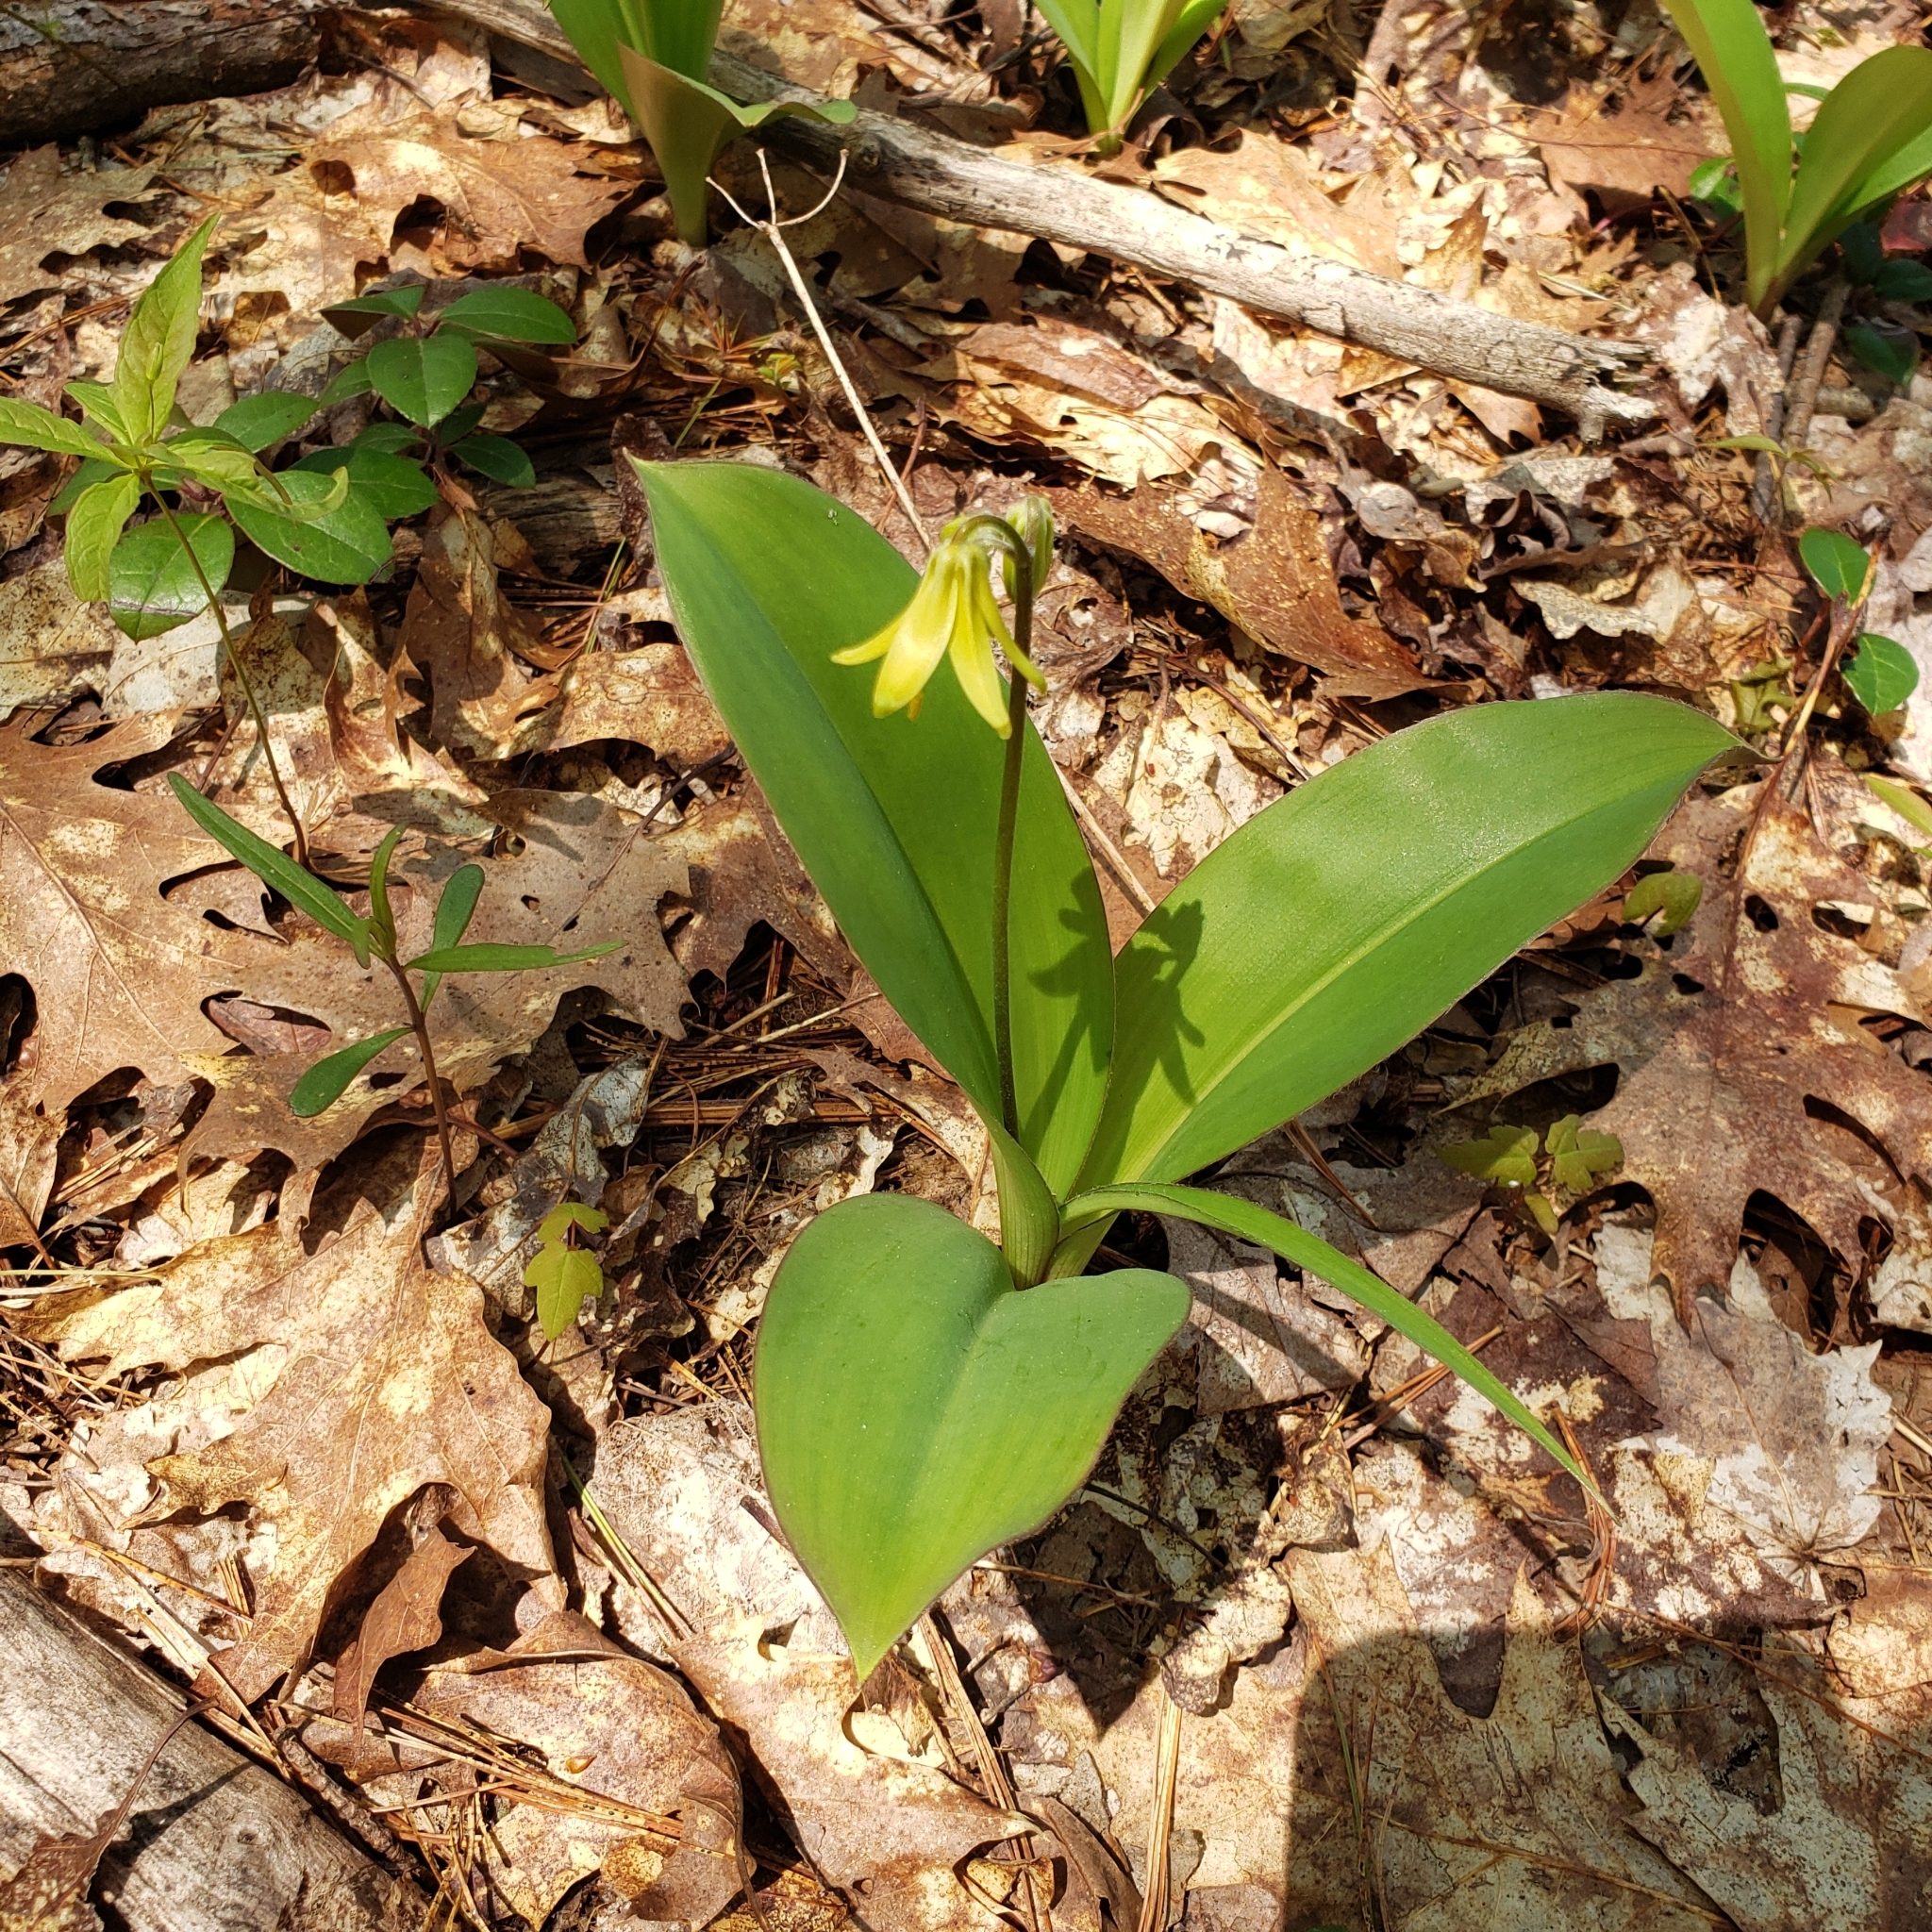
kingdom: Plantae
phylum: Tracheophyta
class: Liliopsida
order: Liliales
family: Liliaceae
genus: Clintonia
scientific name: Clintonia borealis
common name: Yellow clintonia
